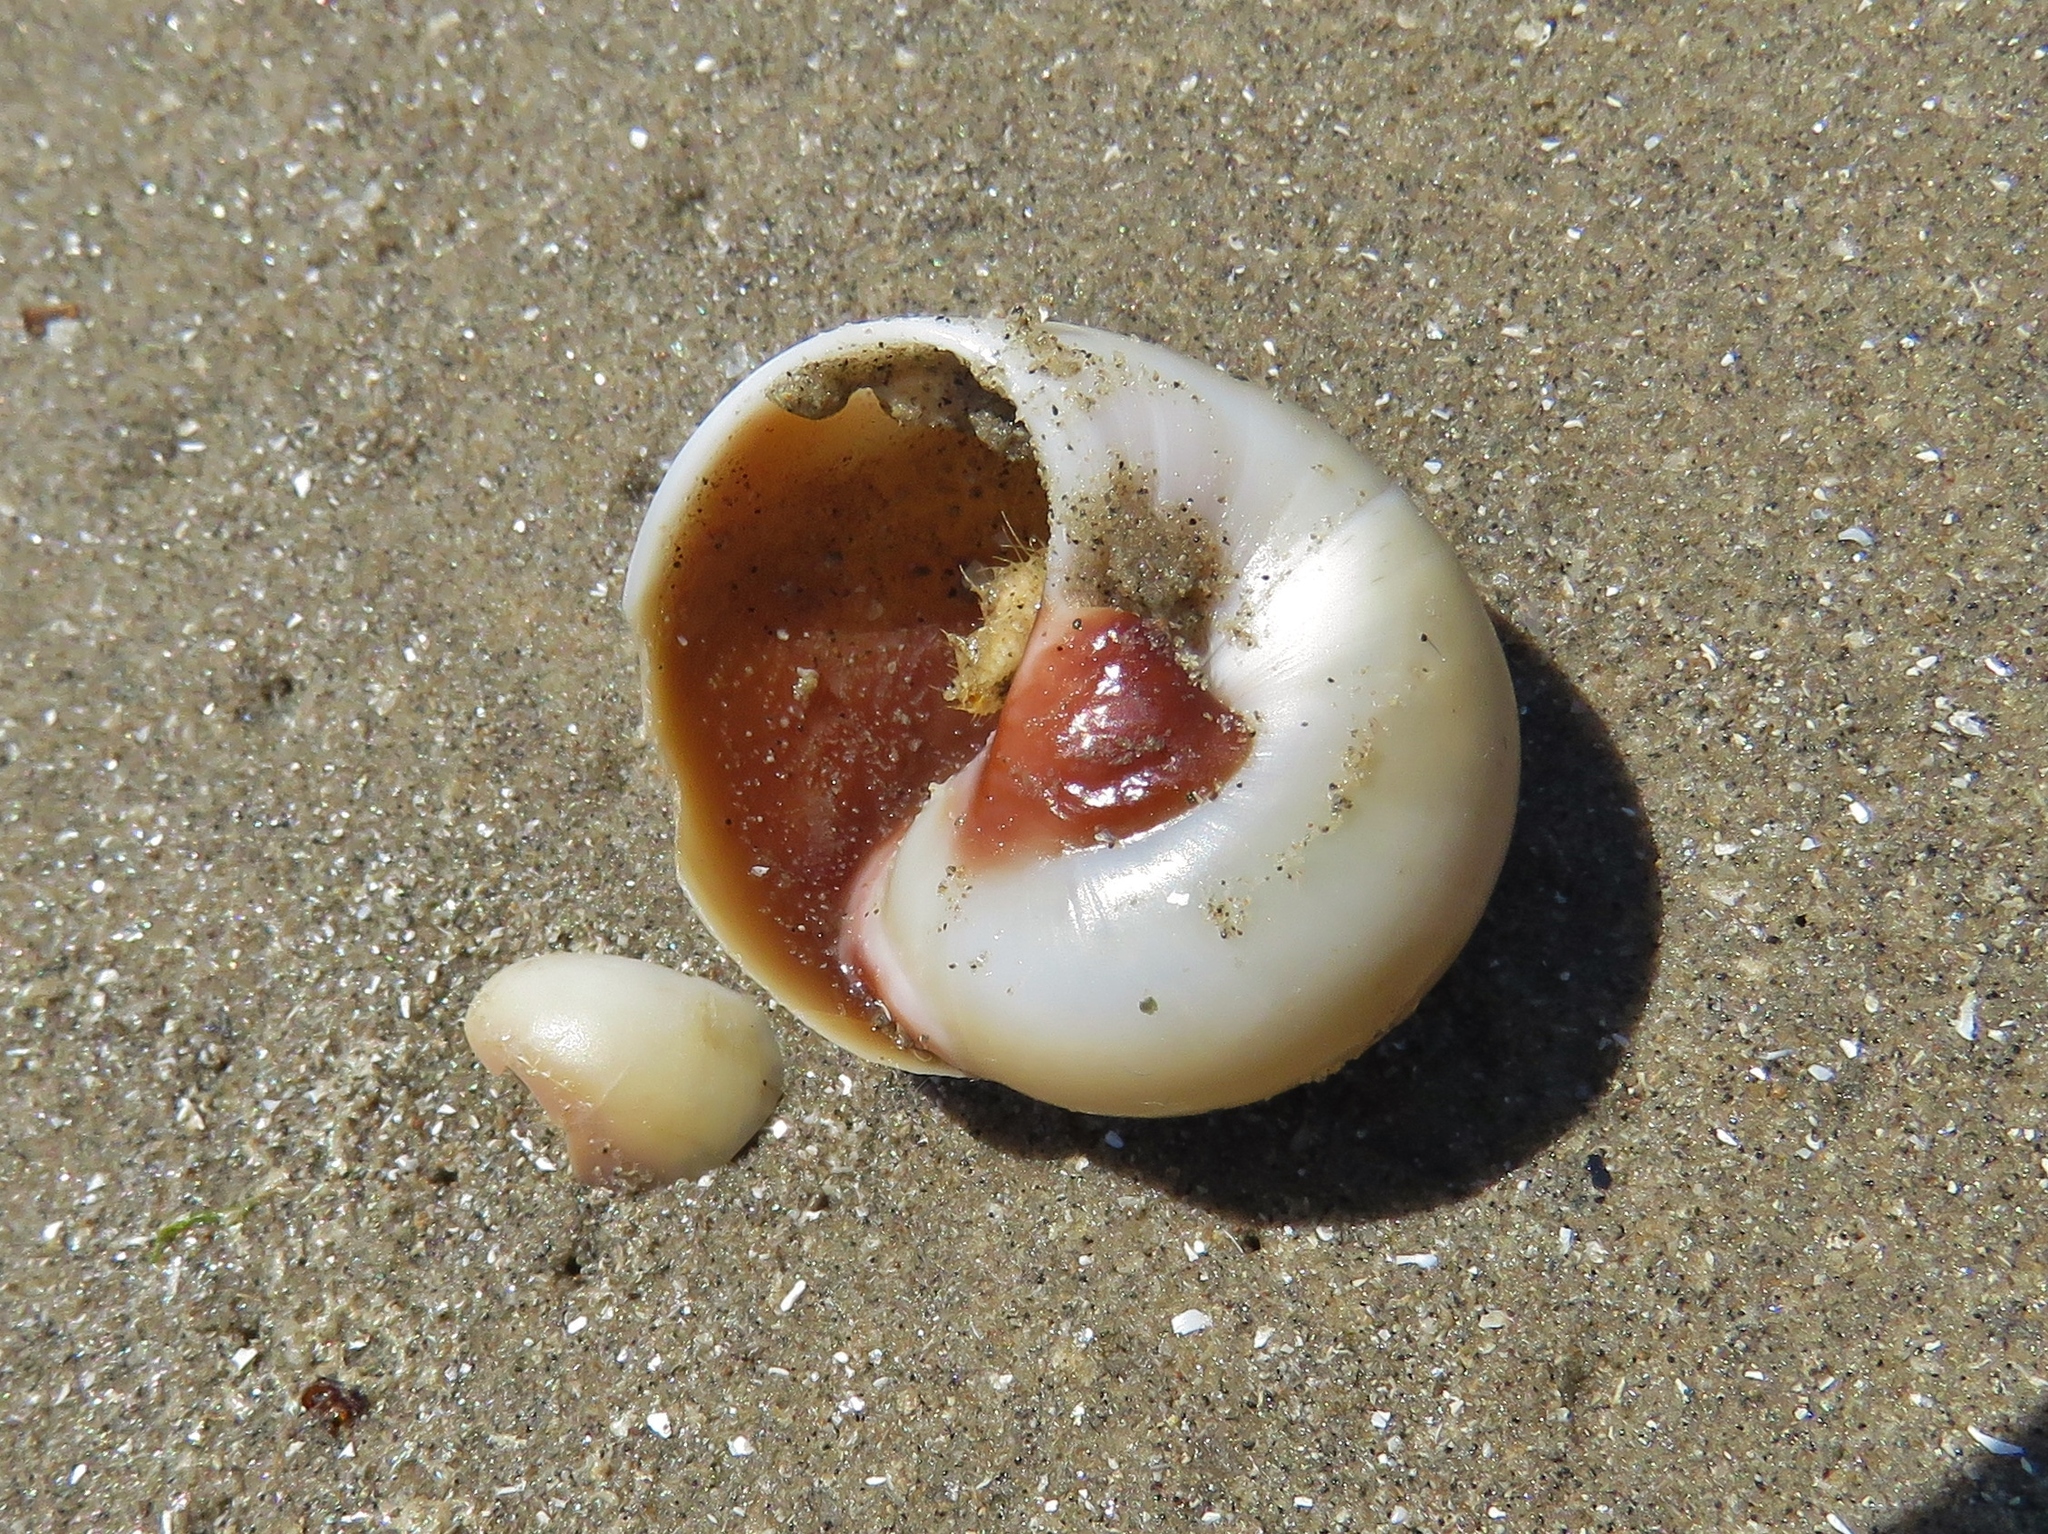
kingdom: Animalia
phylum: Mollusca
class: Gastropoda
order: Littorinimorpha
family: Naticidae
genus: Neverita
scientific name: Neverita duplicata
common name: Lobed moonsnail
